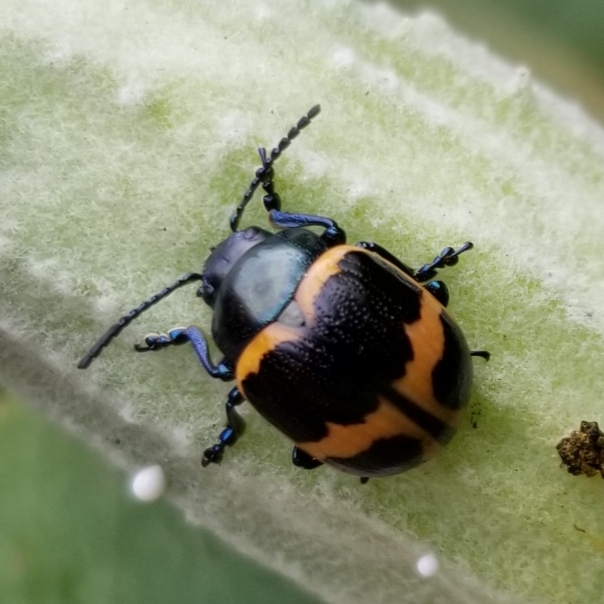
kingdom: Animalia
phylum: Arthropoda
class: Insecta
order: Coleoptera
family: Chrysomelidae
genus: Labidomera
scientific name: Labidomera clivicollis
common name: Swamp milkweed leaf beetle
